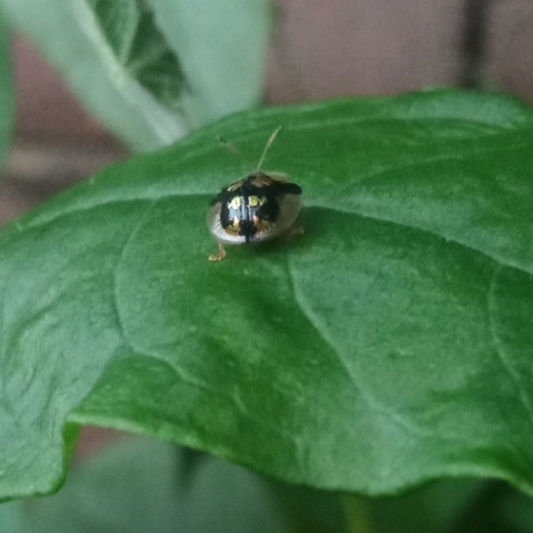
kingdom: Animalia
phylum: Arthropoda
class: Insecta
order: Coleoptera
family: Chrysomelidae
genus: Deloyala
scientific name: Deloyala guttata
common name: Mottled tortoise beetle
